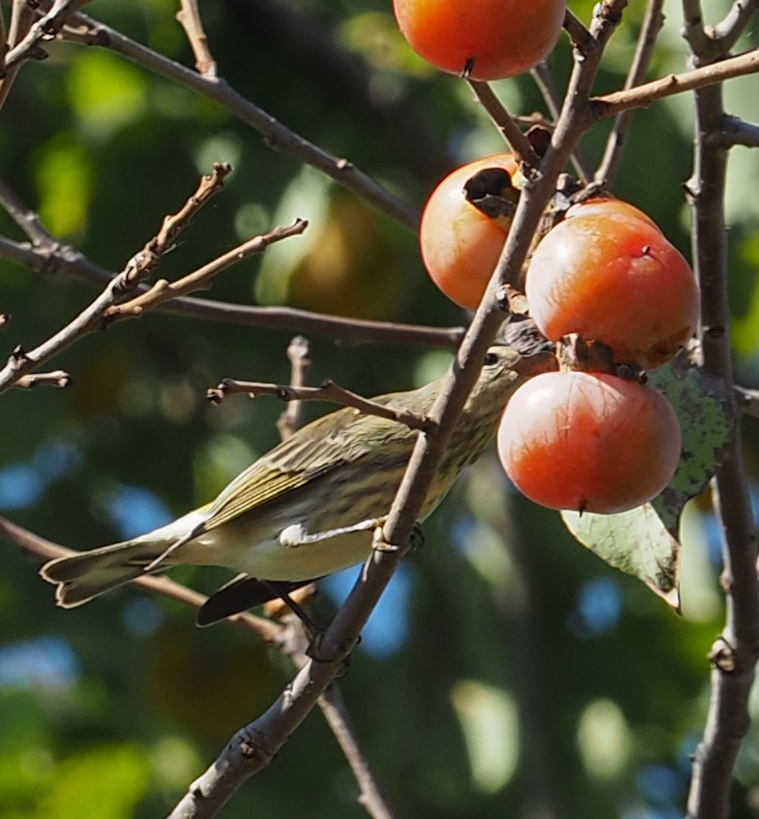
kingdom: Animalia
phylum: Chordata
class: Aves
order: Passeriformes
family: Parulidae
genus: Setophaga
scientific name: Setophaga tigrina
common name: Cape may warbler
